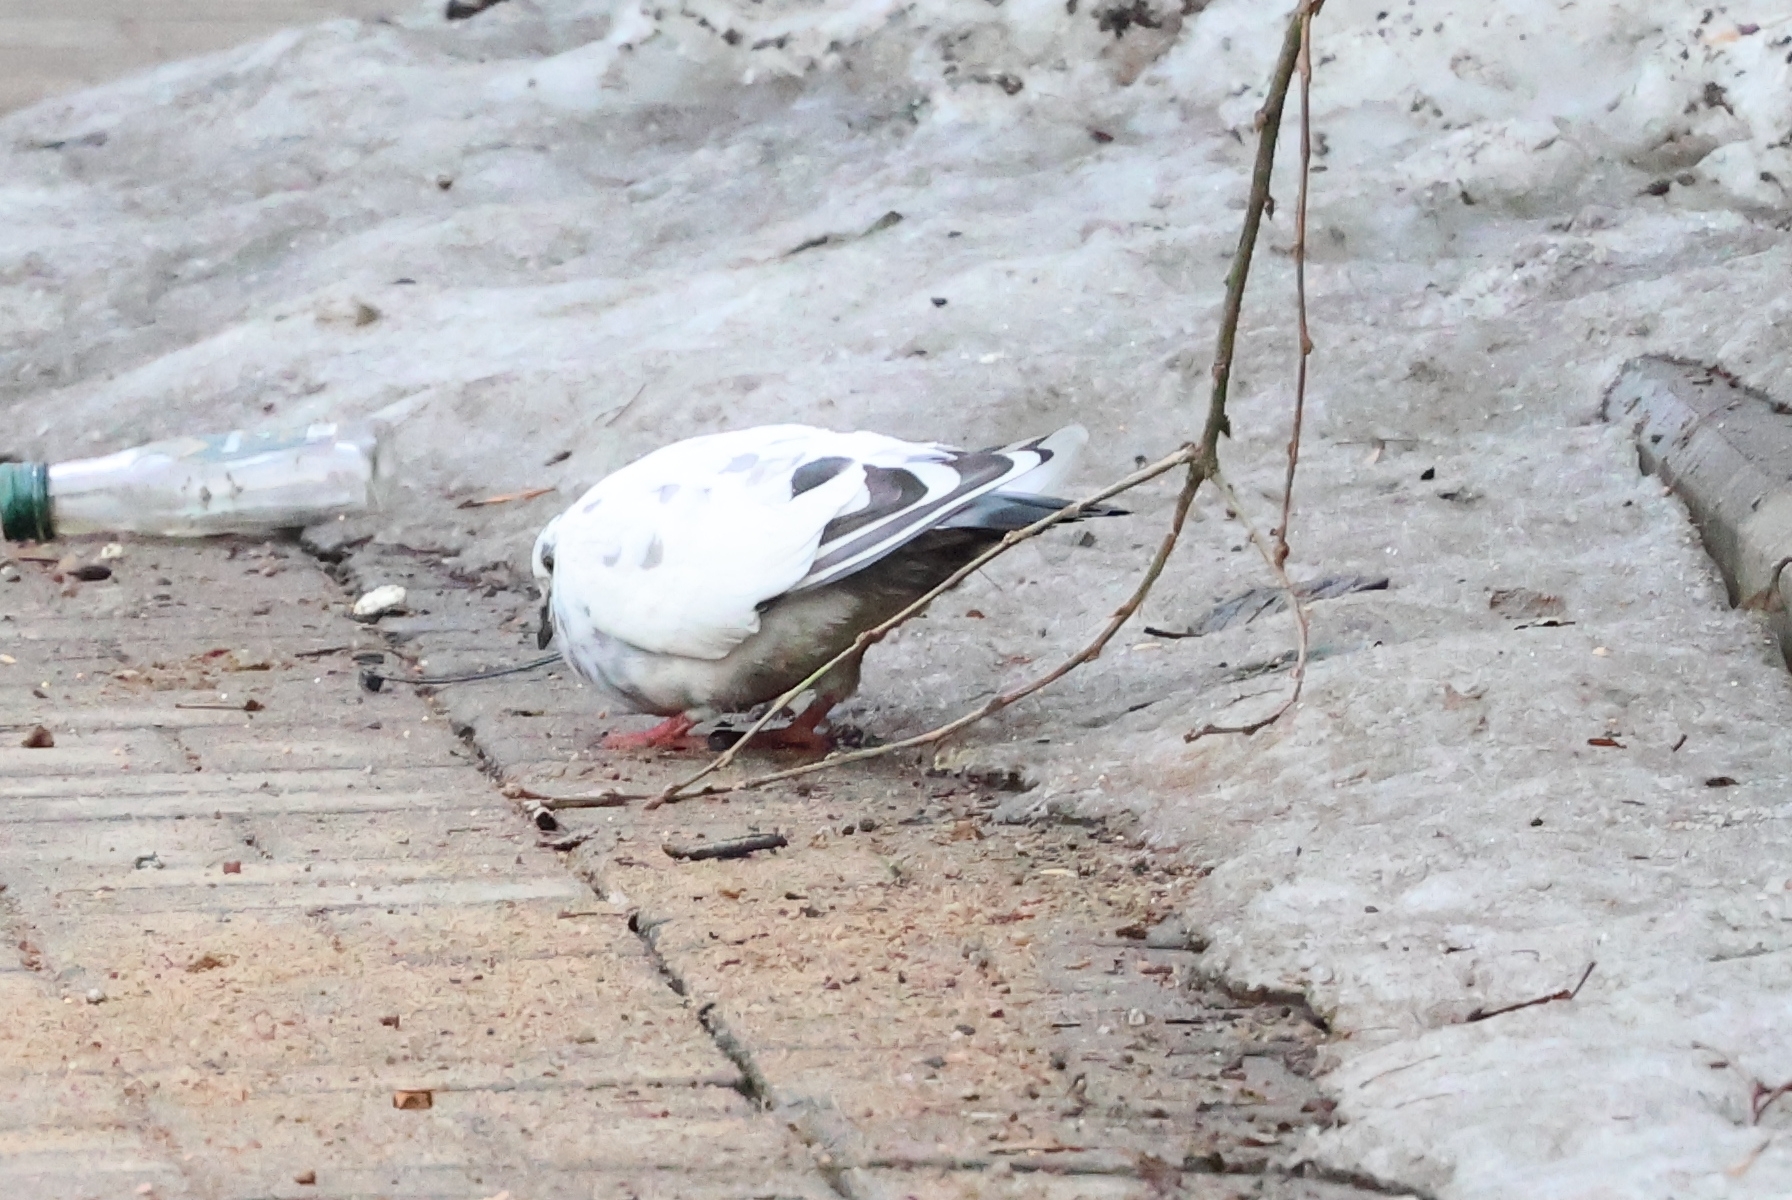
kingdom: Animalia
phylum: Chordata
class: Aves
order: Columbiformes
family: Columbidae
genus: Columba
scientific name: Columba livia
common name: Rock pigeon
